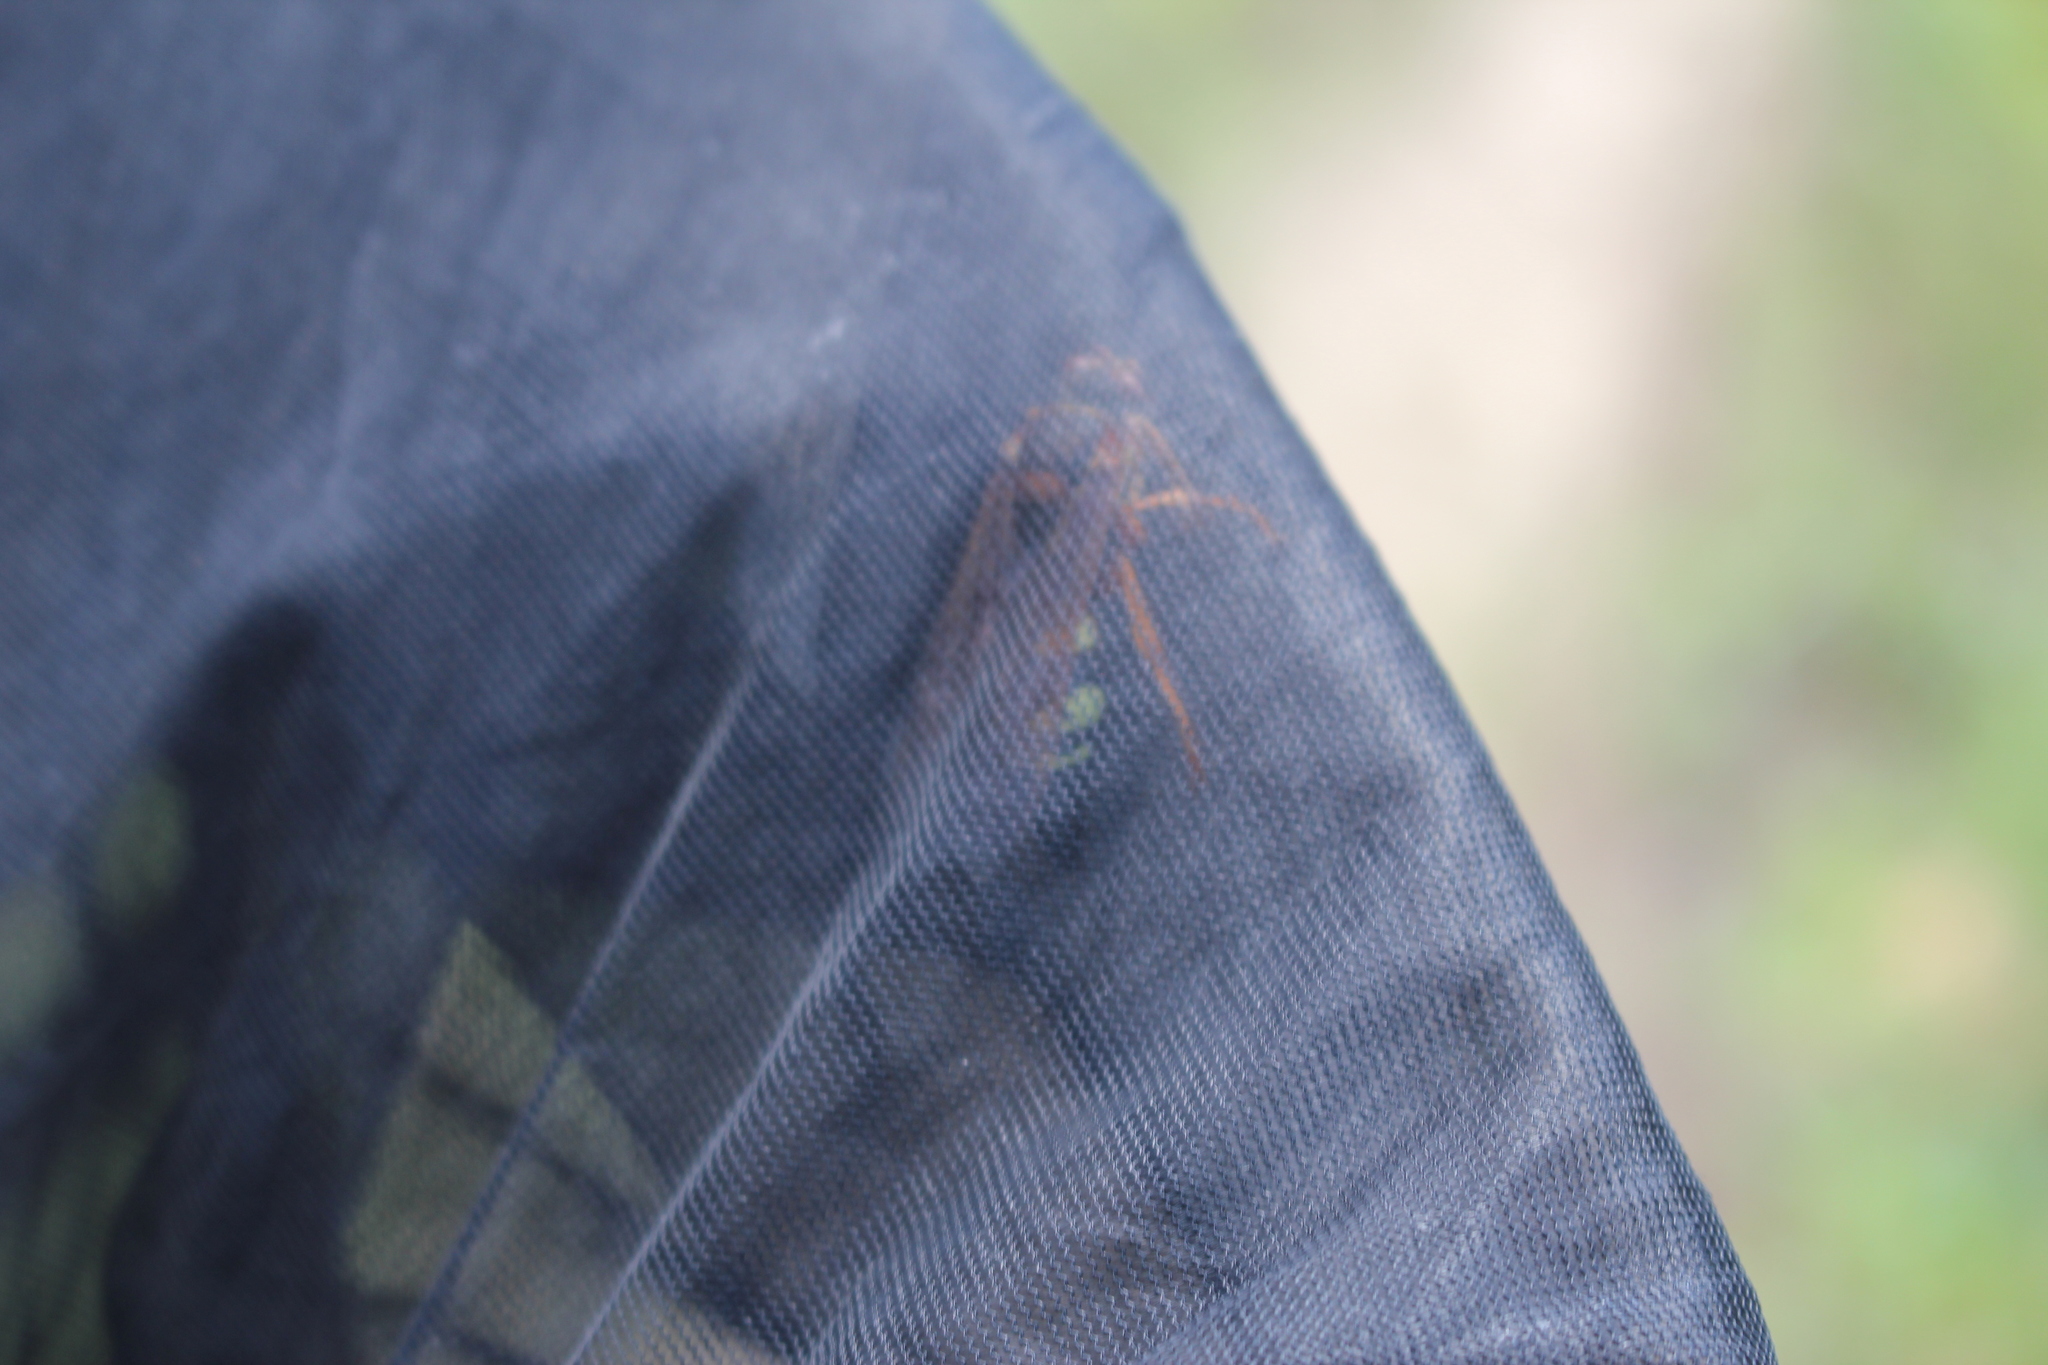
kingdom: Animalia
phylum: Arthropoda
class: Insecta
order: Hymenoptera
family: Crabronidae
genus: Sphecius
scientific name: Sphecius speciosus
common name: Cicada killer
